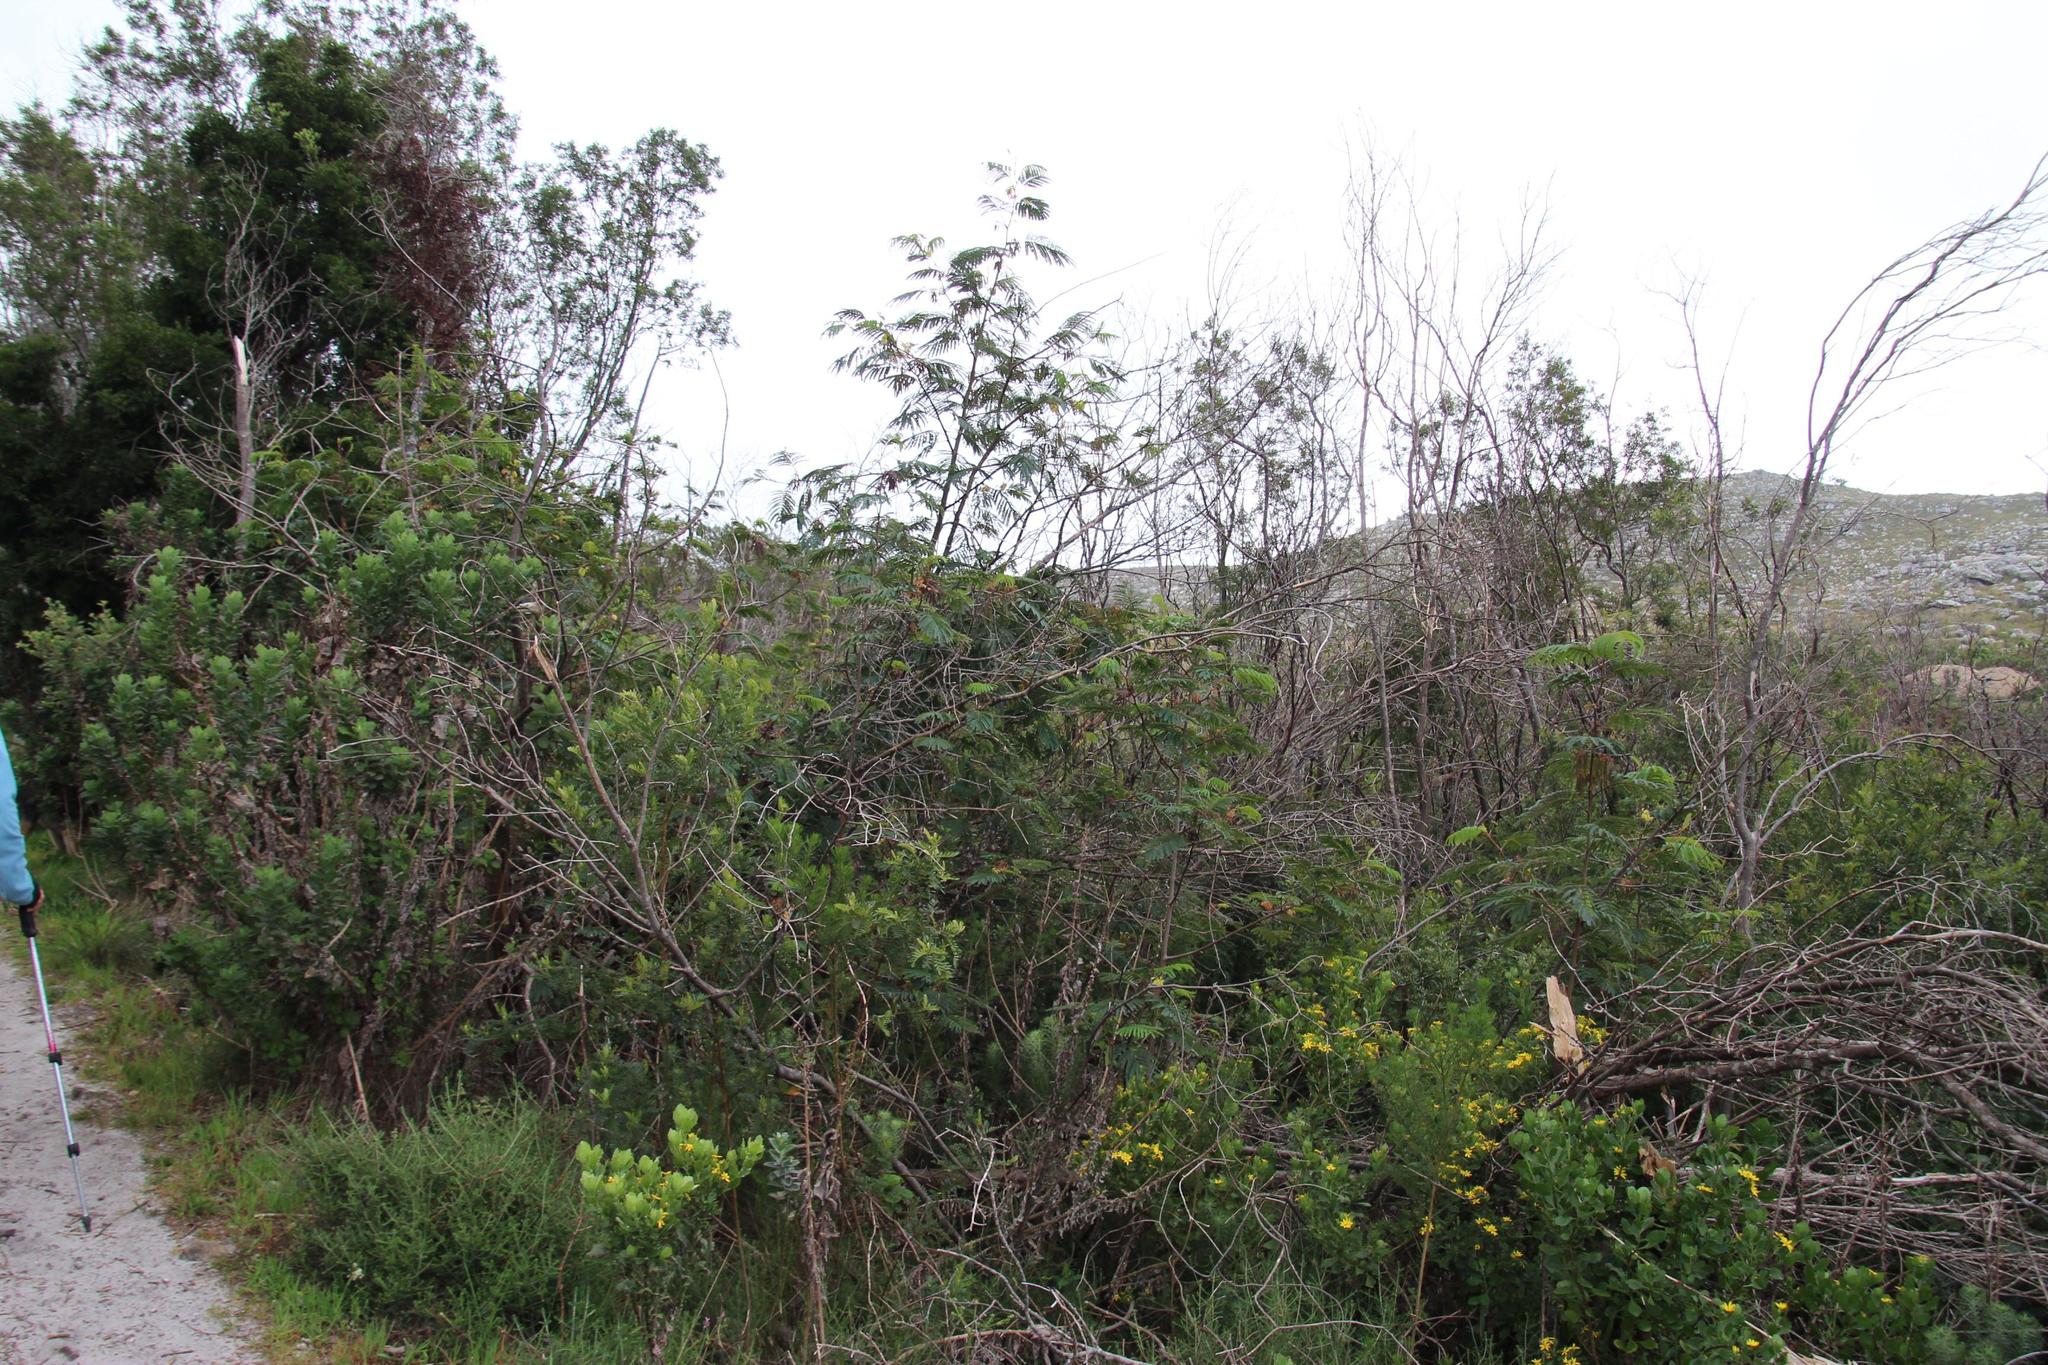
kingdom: Plantae
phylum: Tracheophyta
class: Magnoliopsida
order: Fabales
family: Fabaceae
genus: Paraserianthes
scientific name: Paraserianthes lophantha
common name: Plume albizia
